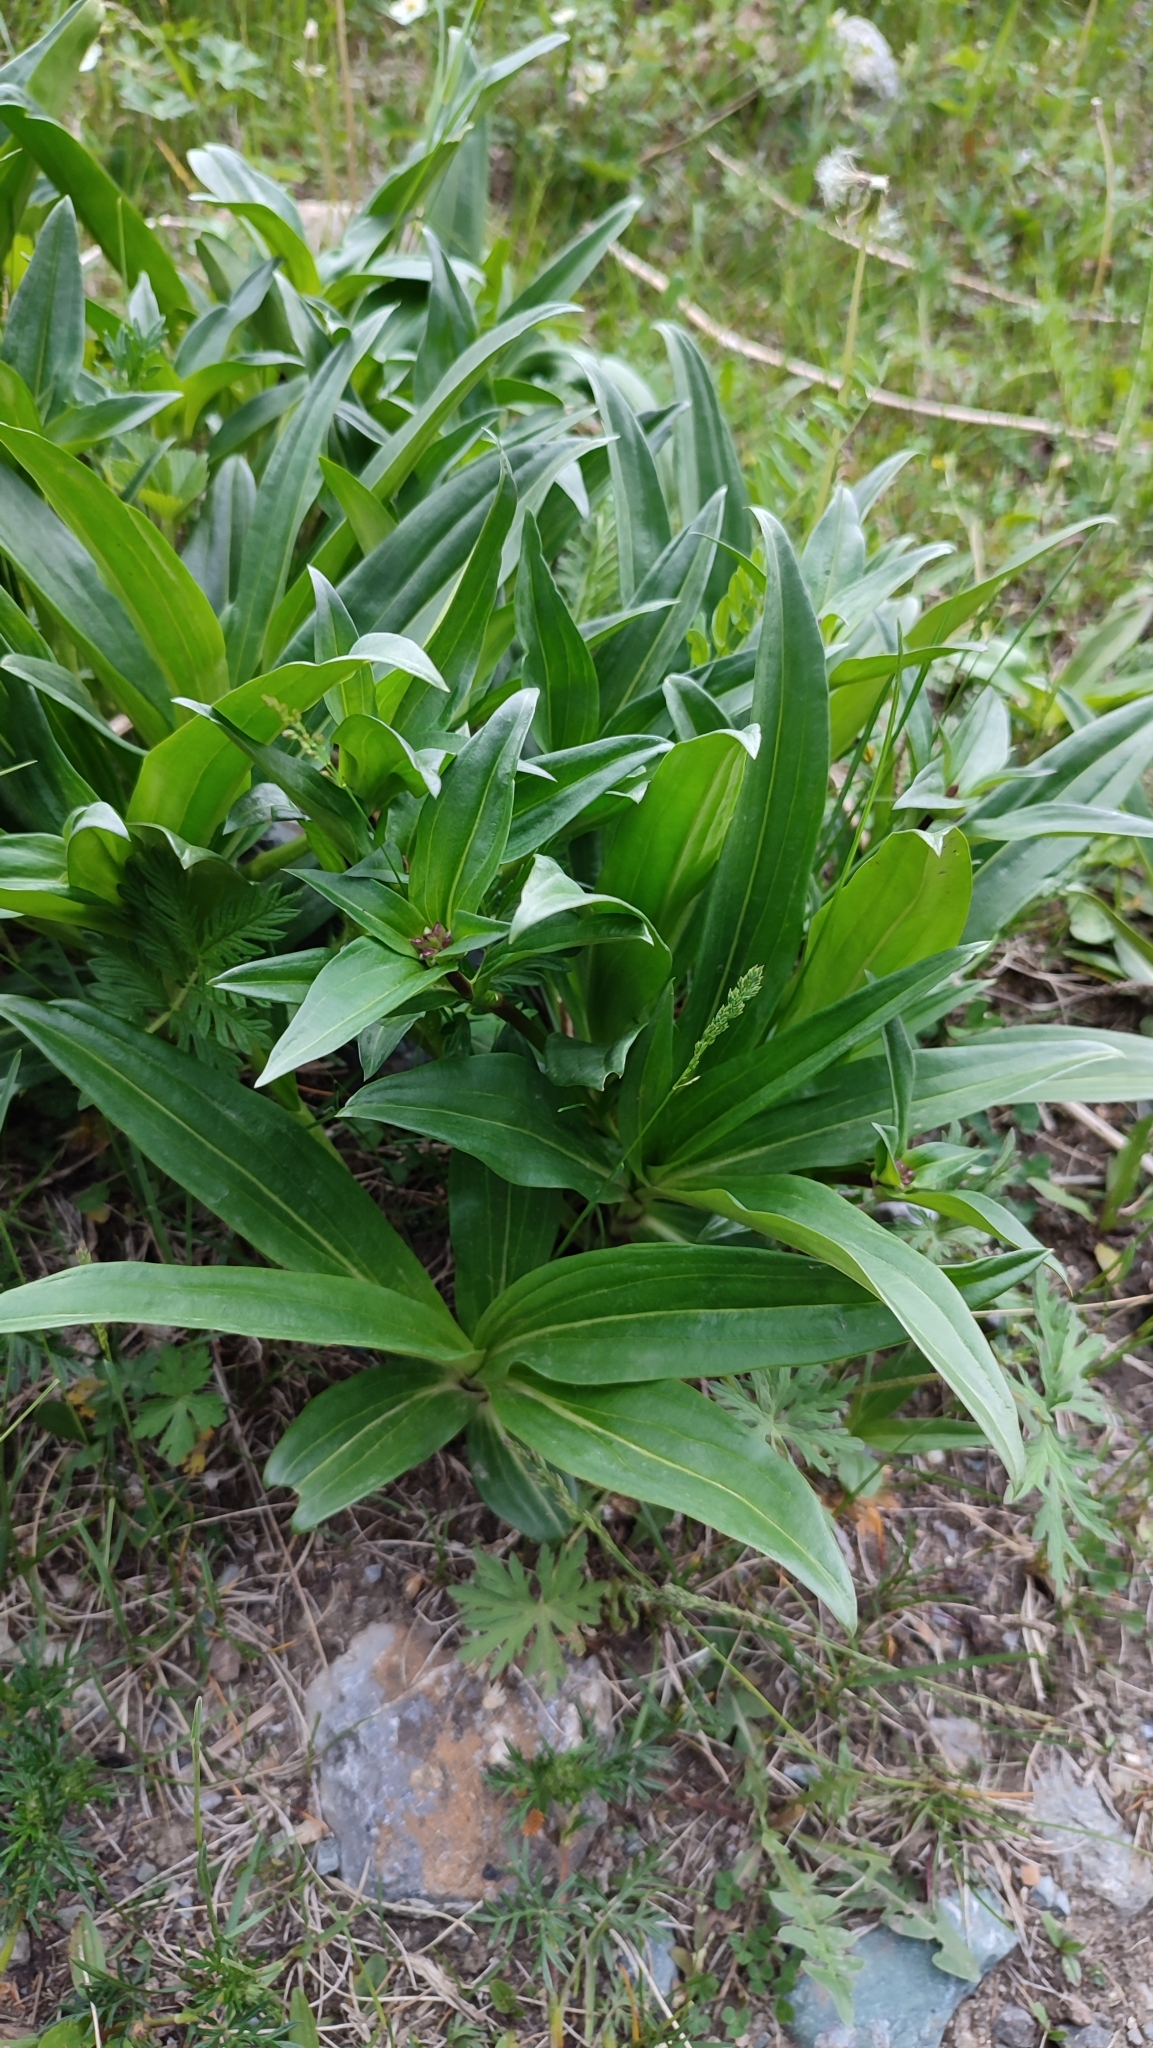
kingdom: Plantae
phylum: Tracheophyta
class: Magnoliopsida
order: Gentianales
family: Gentianaceae
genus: Gentiana
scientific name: Gentiana macrophylla
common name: Large-leaf gentian
